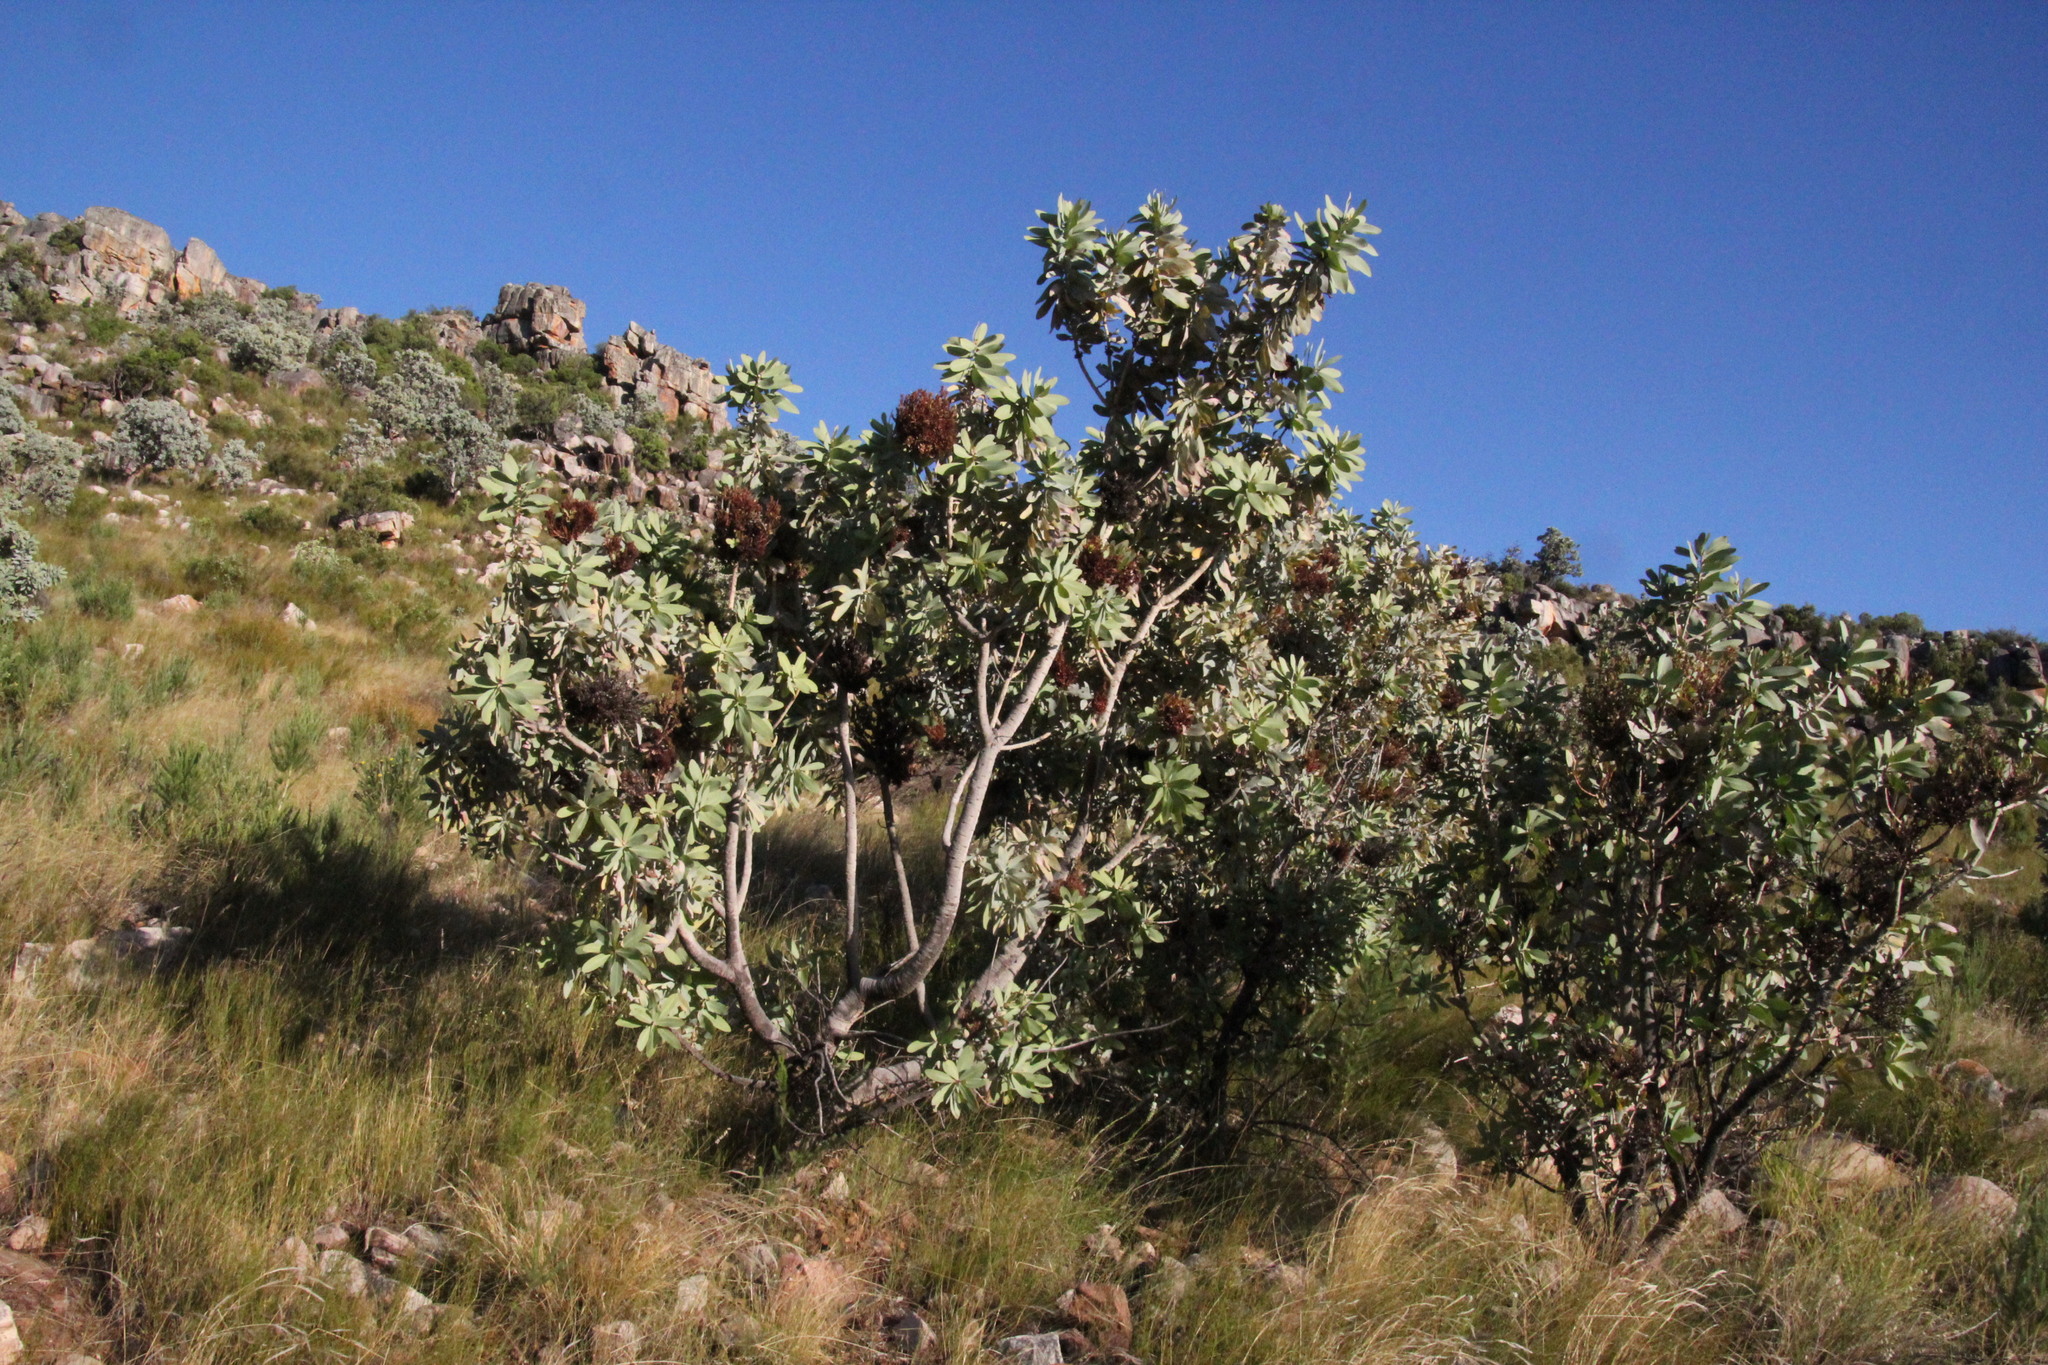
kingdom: Plantae
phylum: Tracheophyta
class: Magnoliopsida
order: Proteales
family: Proteaceae
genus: Protea
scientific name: Protea nitida
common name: Tree protea
